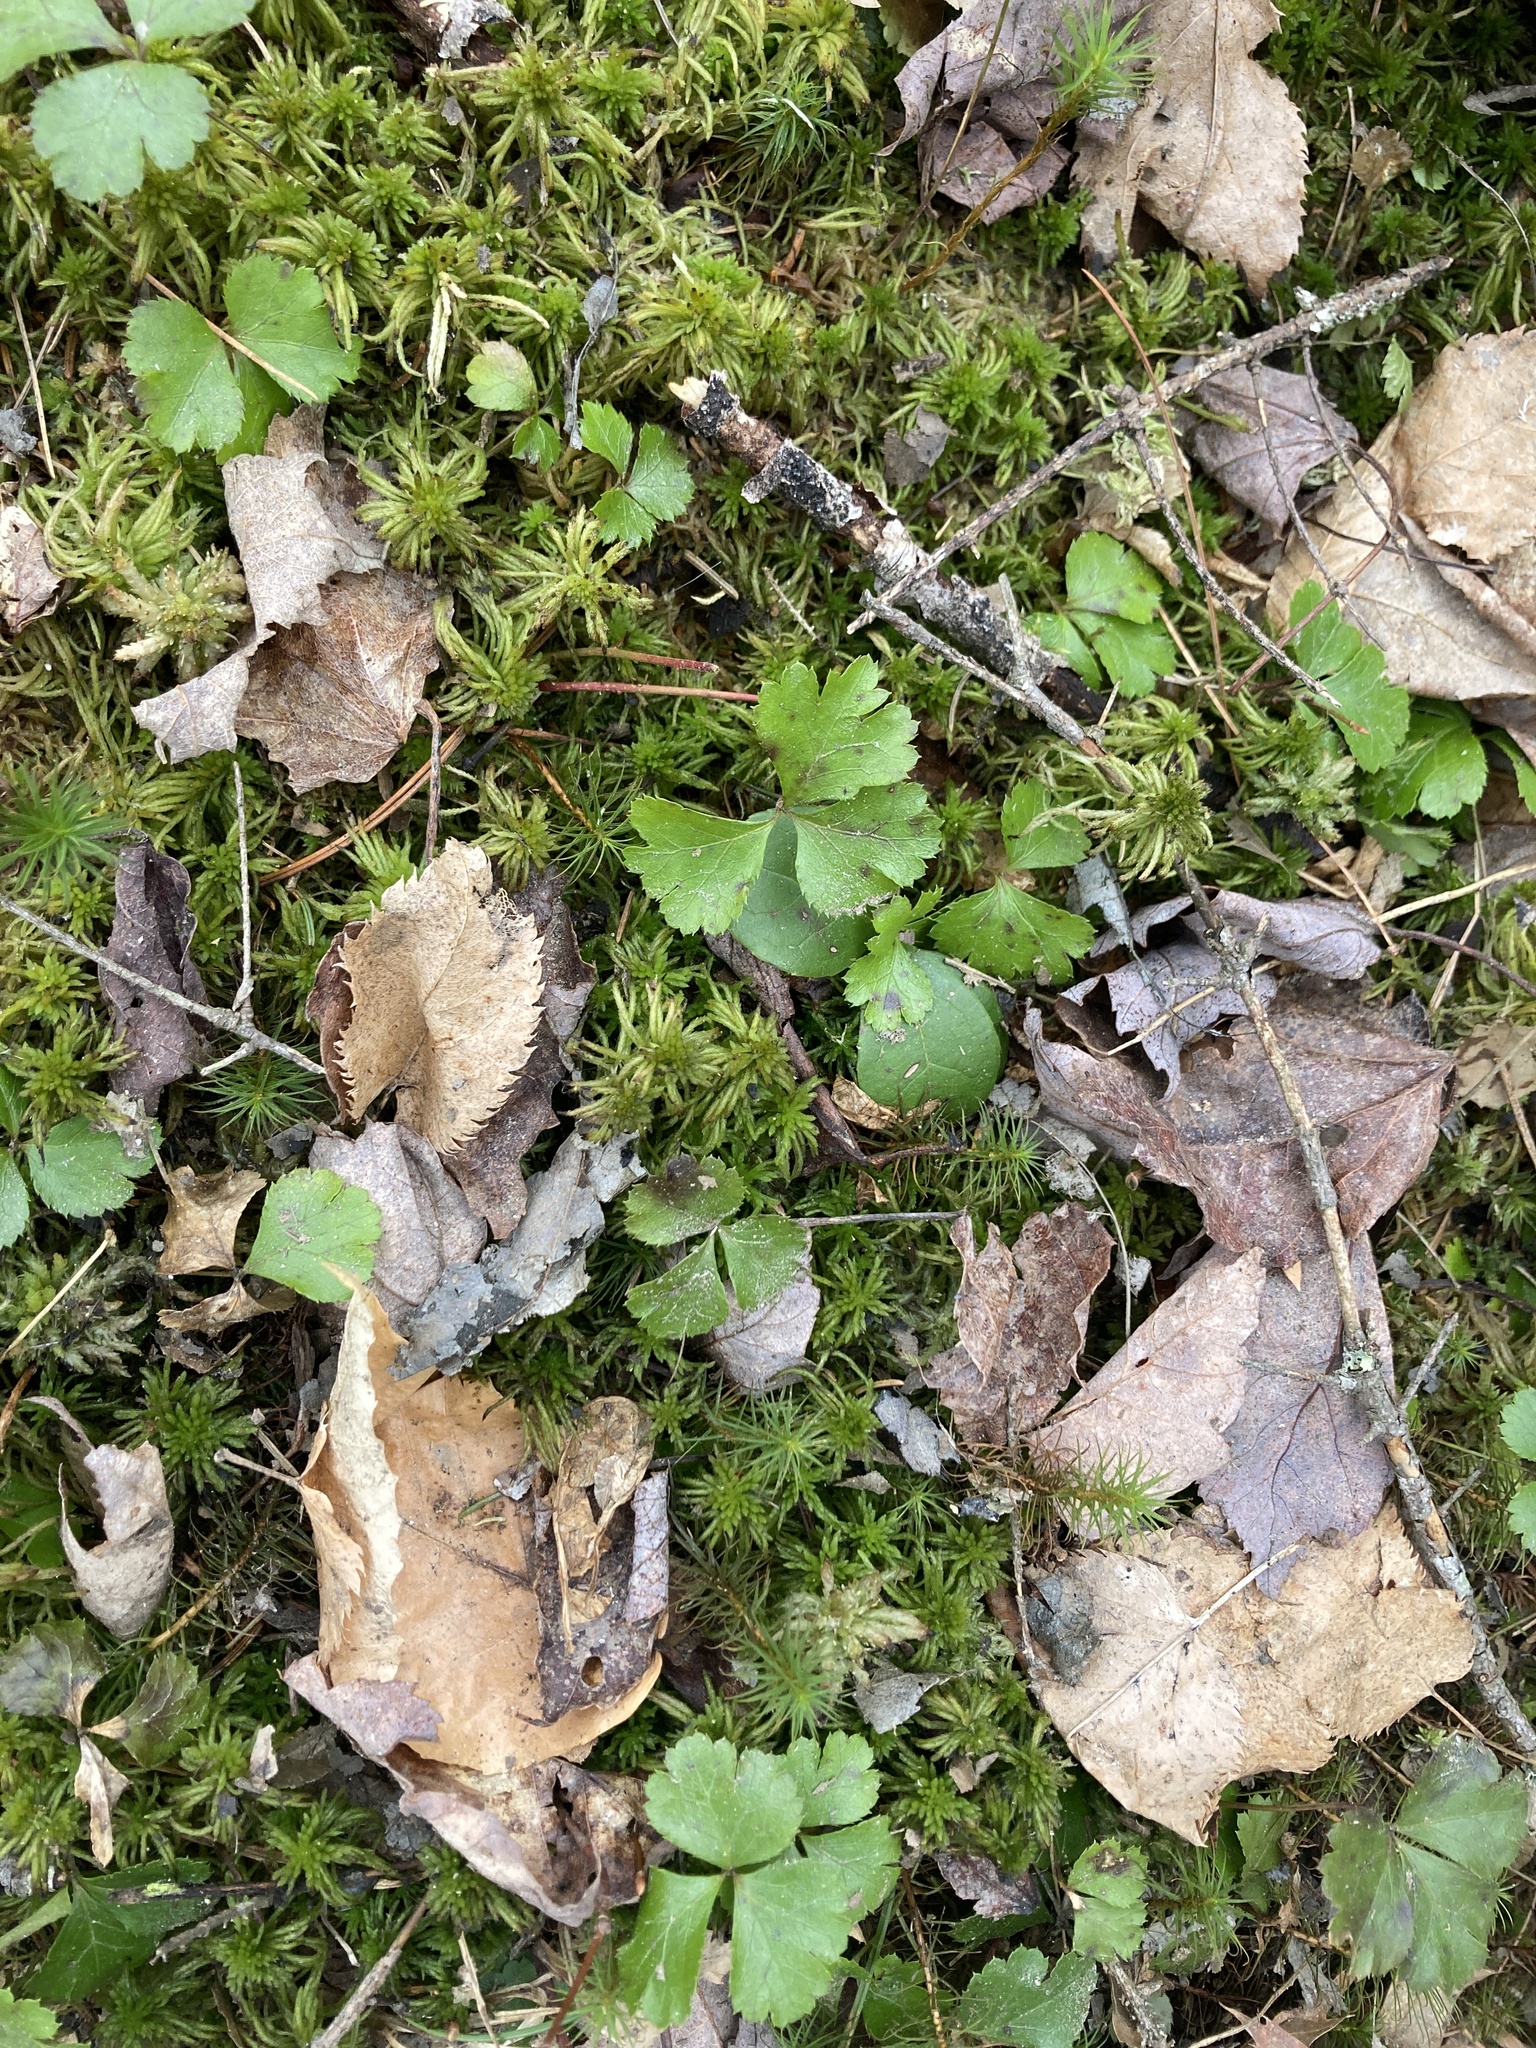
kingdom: Plantae
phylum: Tracheophyta
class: Magnoliopsida
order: Ranunculales
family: Ranunculaceae
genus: Coptis
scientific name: Coptis trifolia
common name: Canker-root
